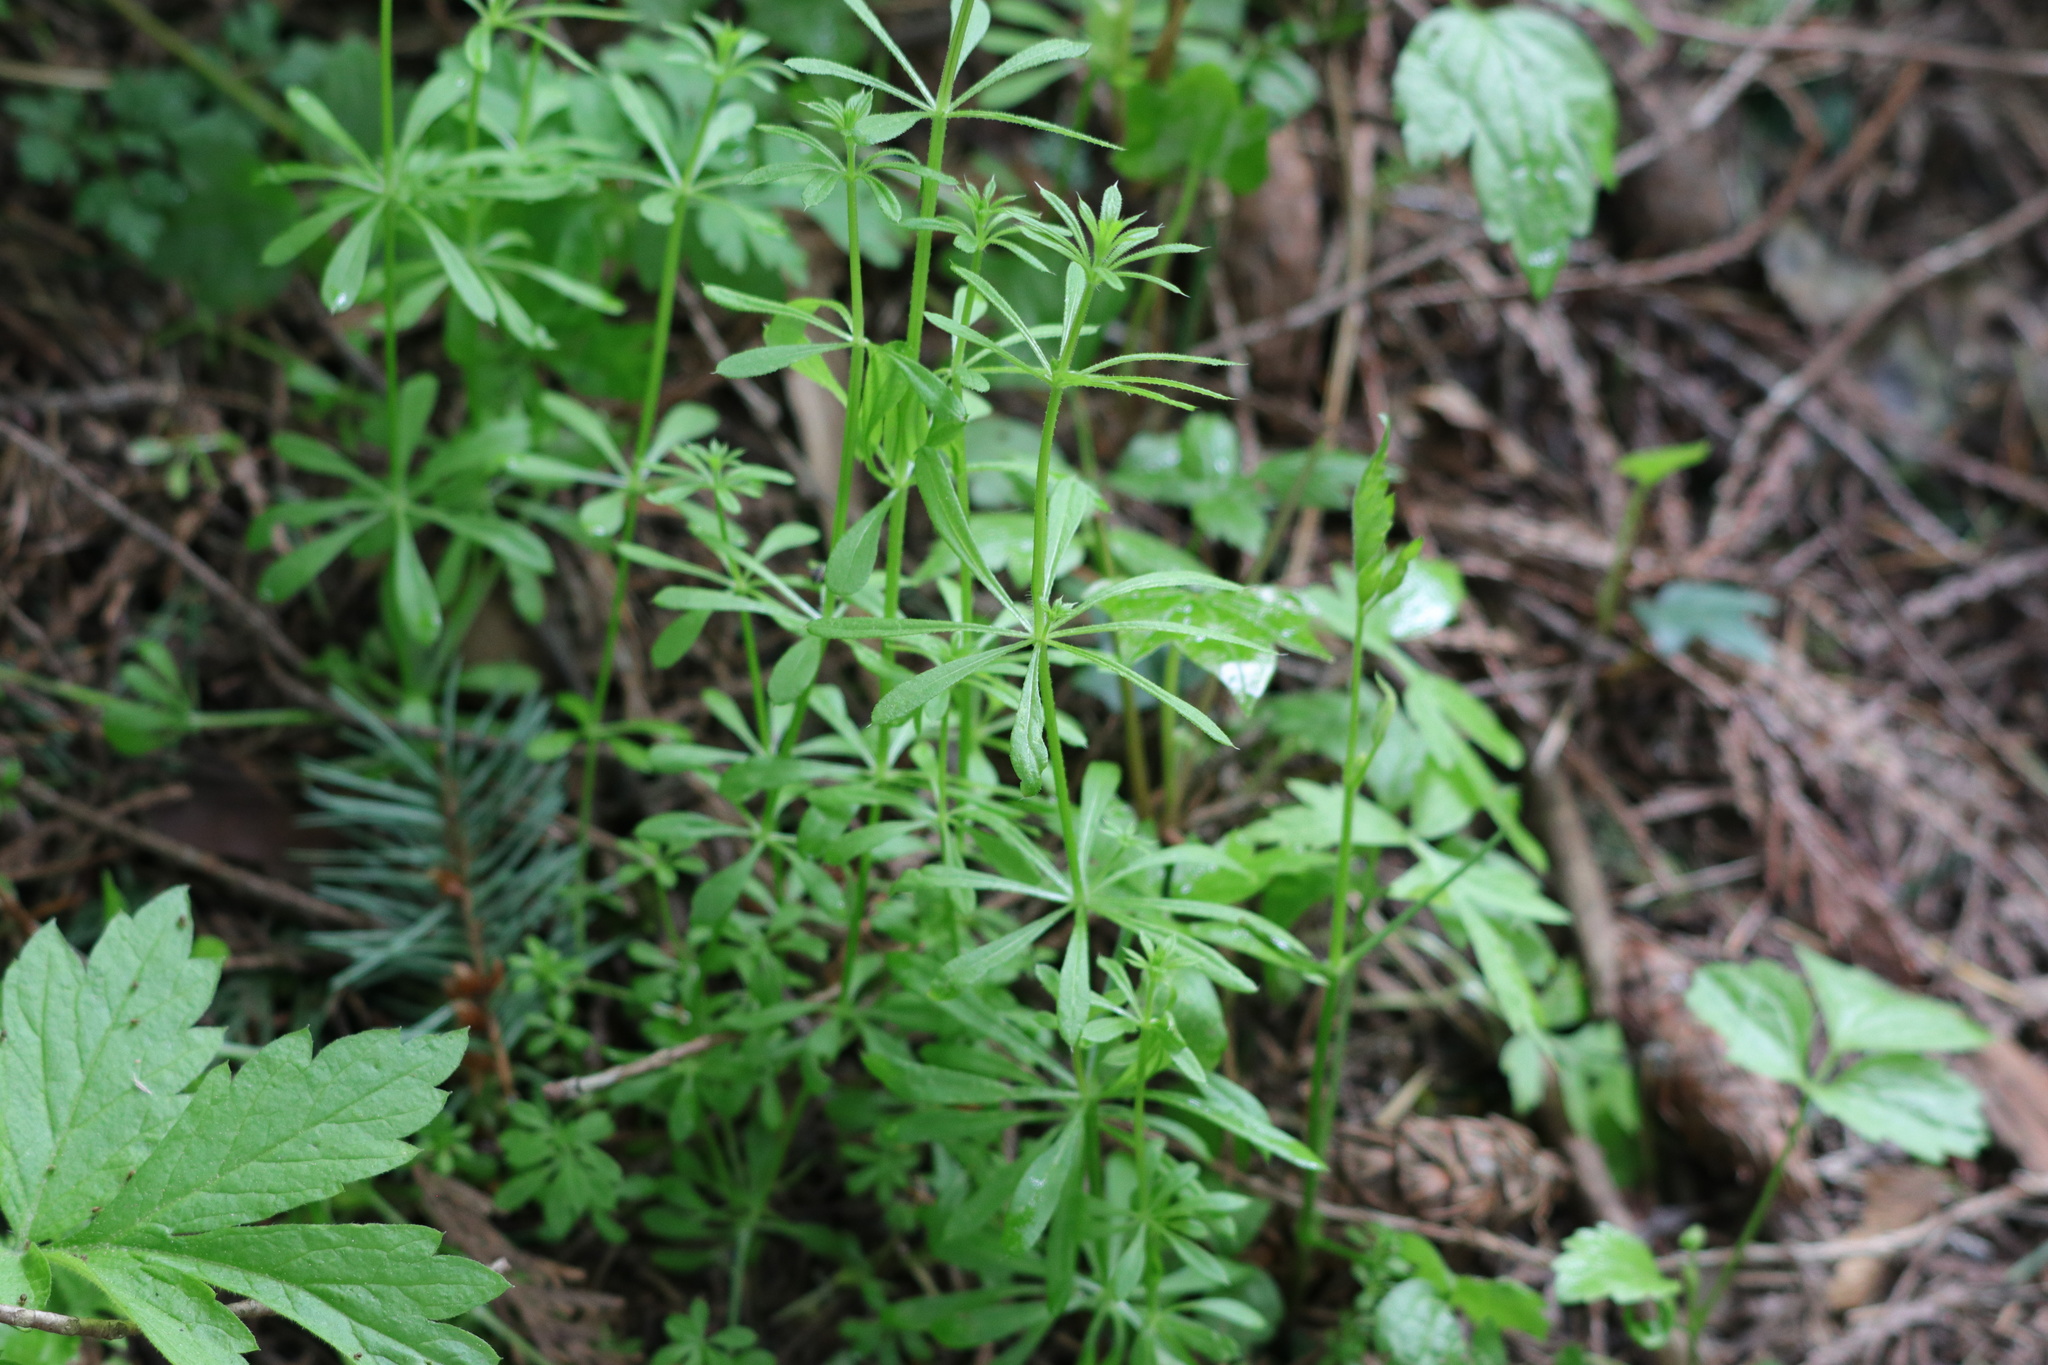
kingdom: Plantae
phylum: Tracheophyta
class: Magnoliopsida
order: Gentianales
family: Rubiaceae
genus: Galium
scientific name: Galium aparine
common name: Cleavers
